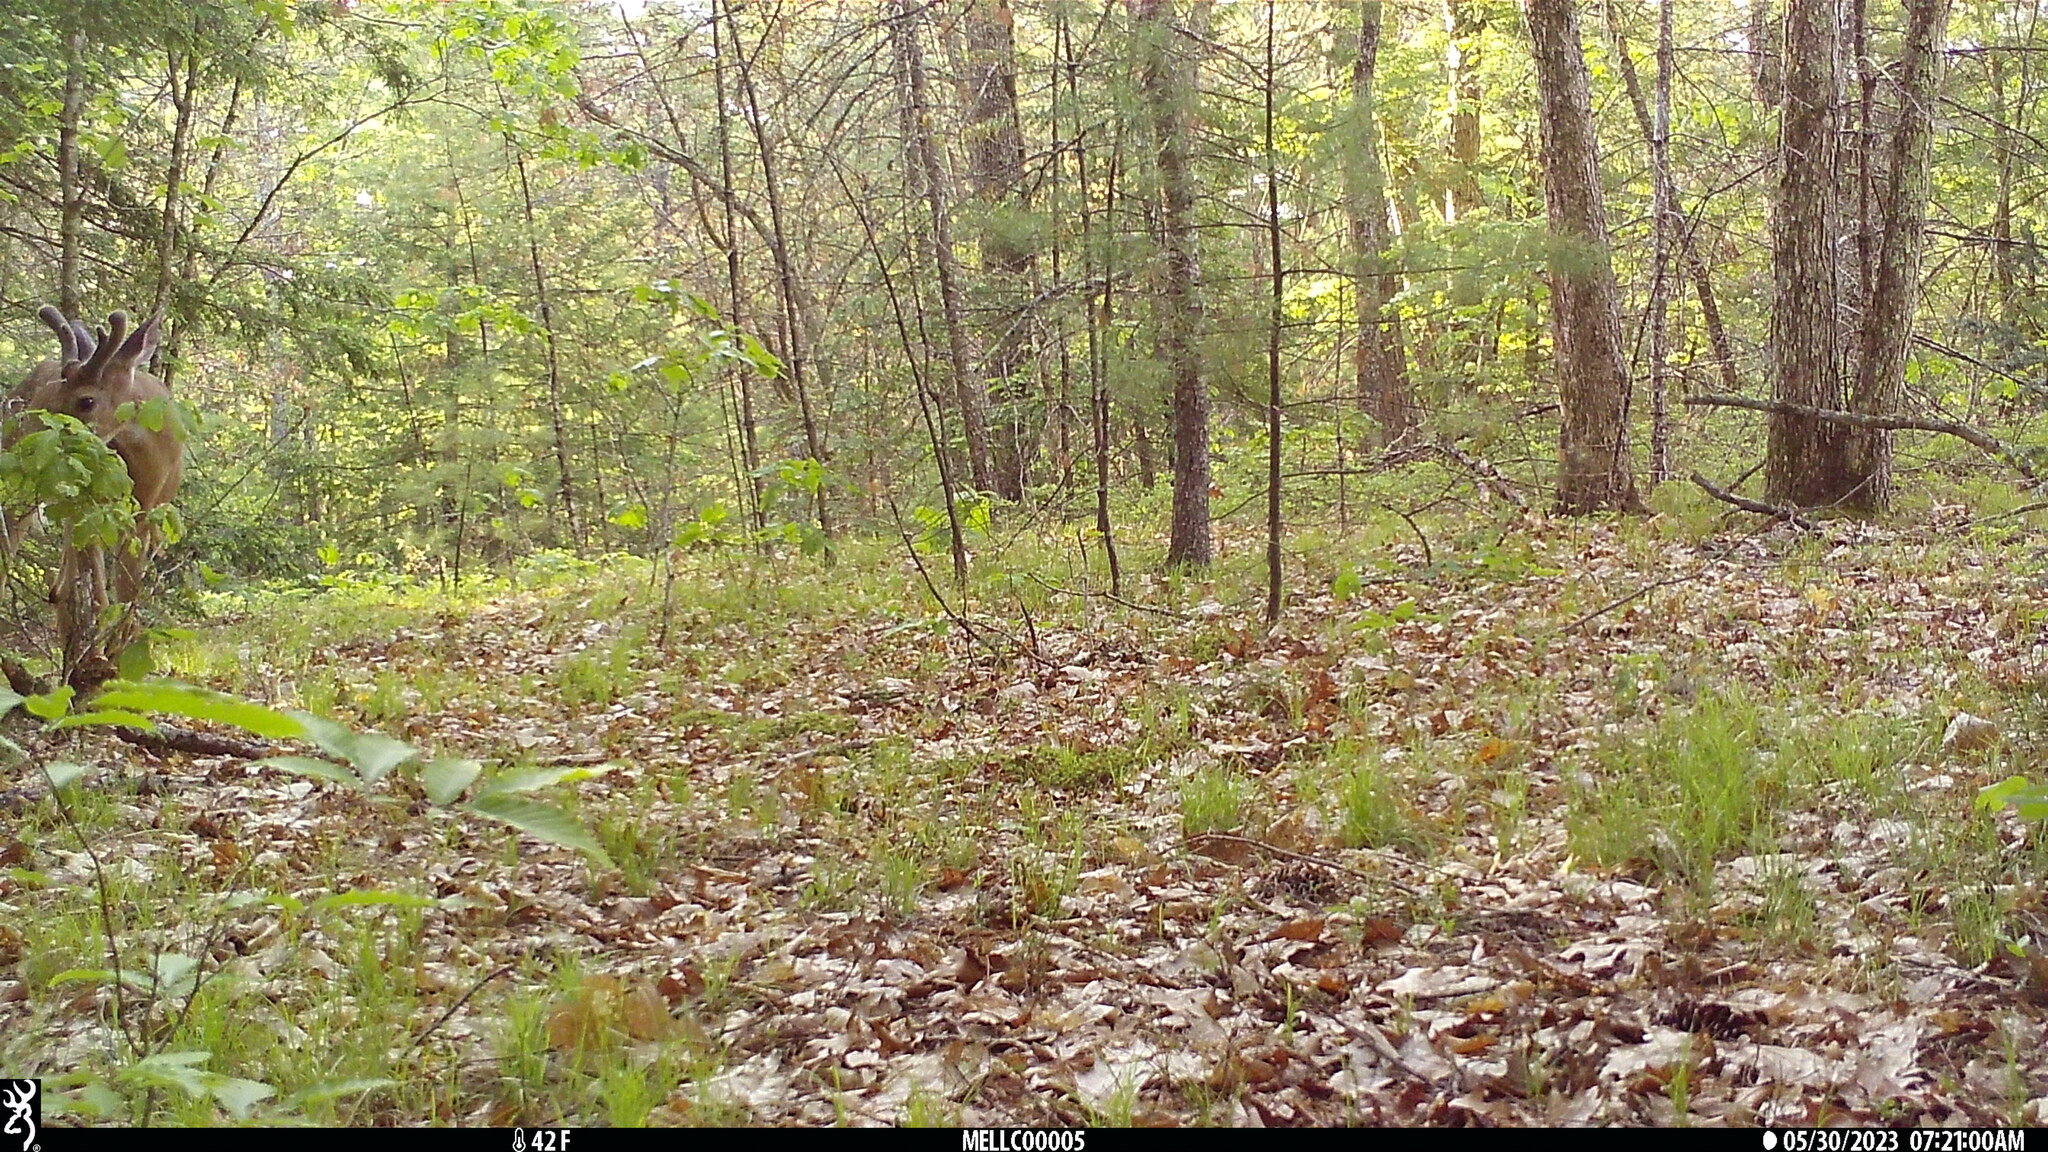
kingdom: Animalia
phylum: Chordata
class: Mammalia
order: Artiodactyla
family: Cervidae
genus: Odocoileus
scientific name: Odocoileus virginianus
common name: White-tailed deer
